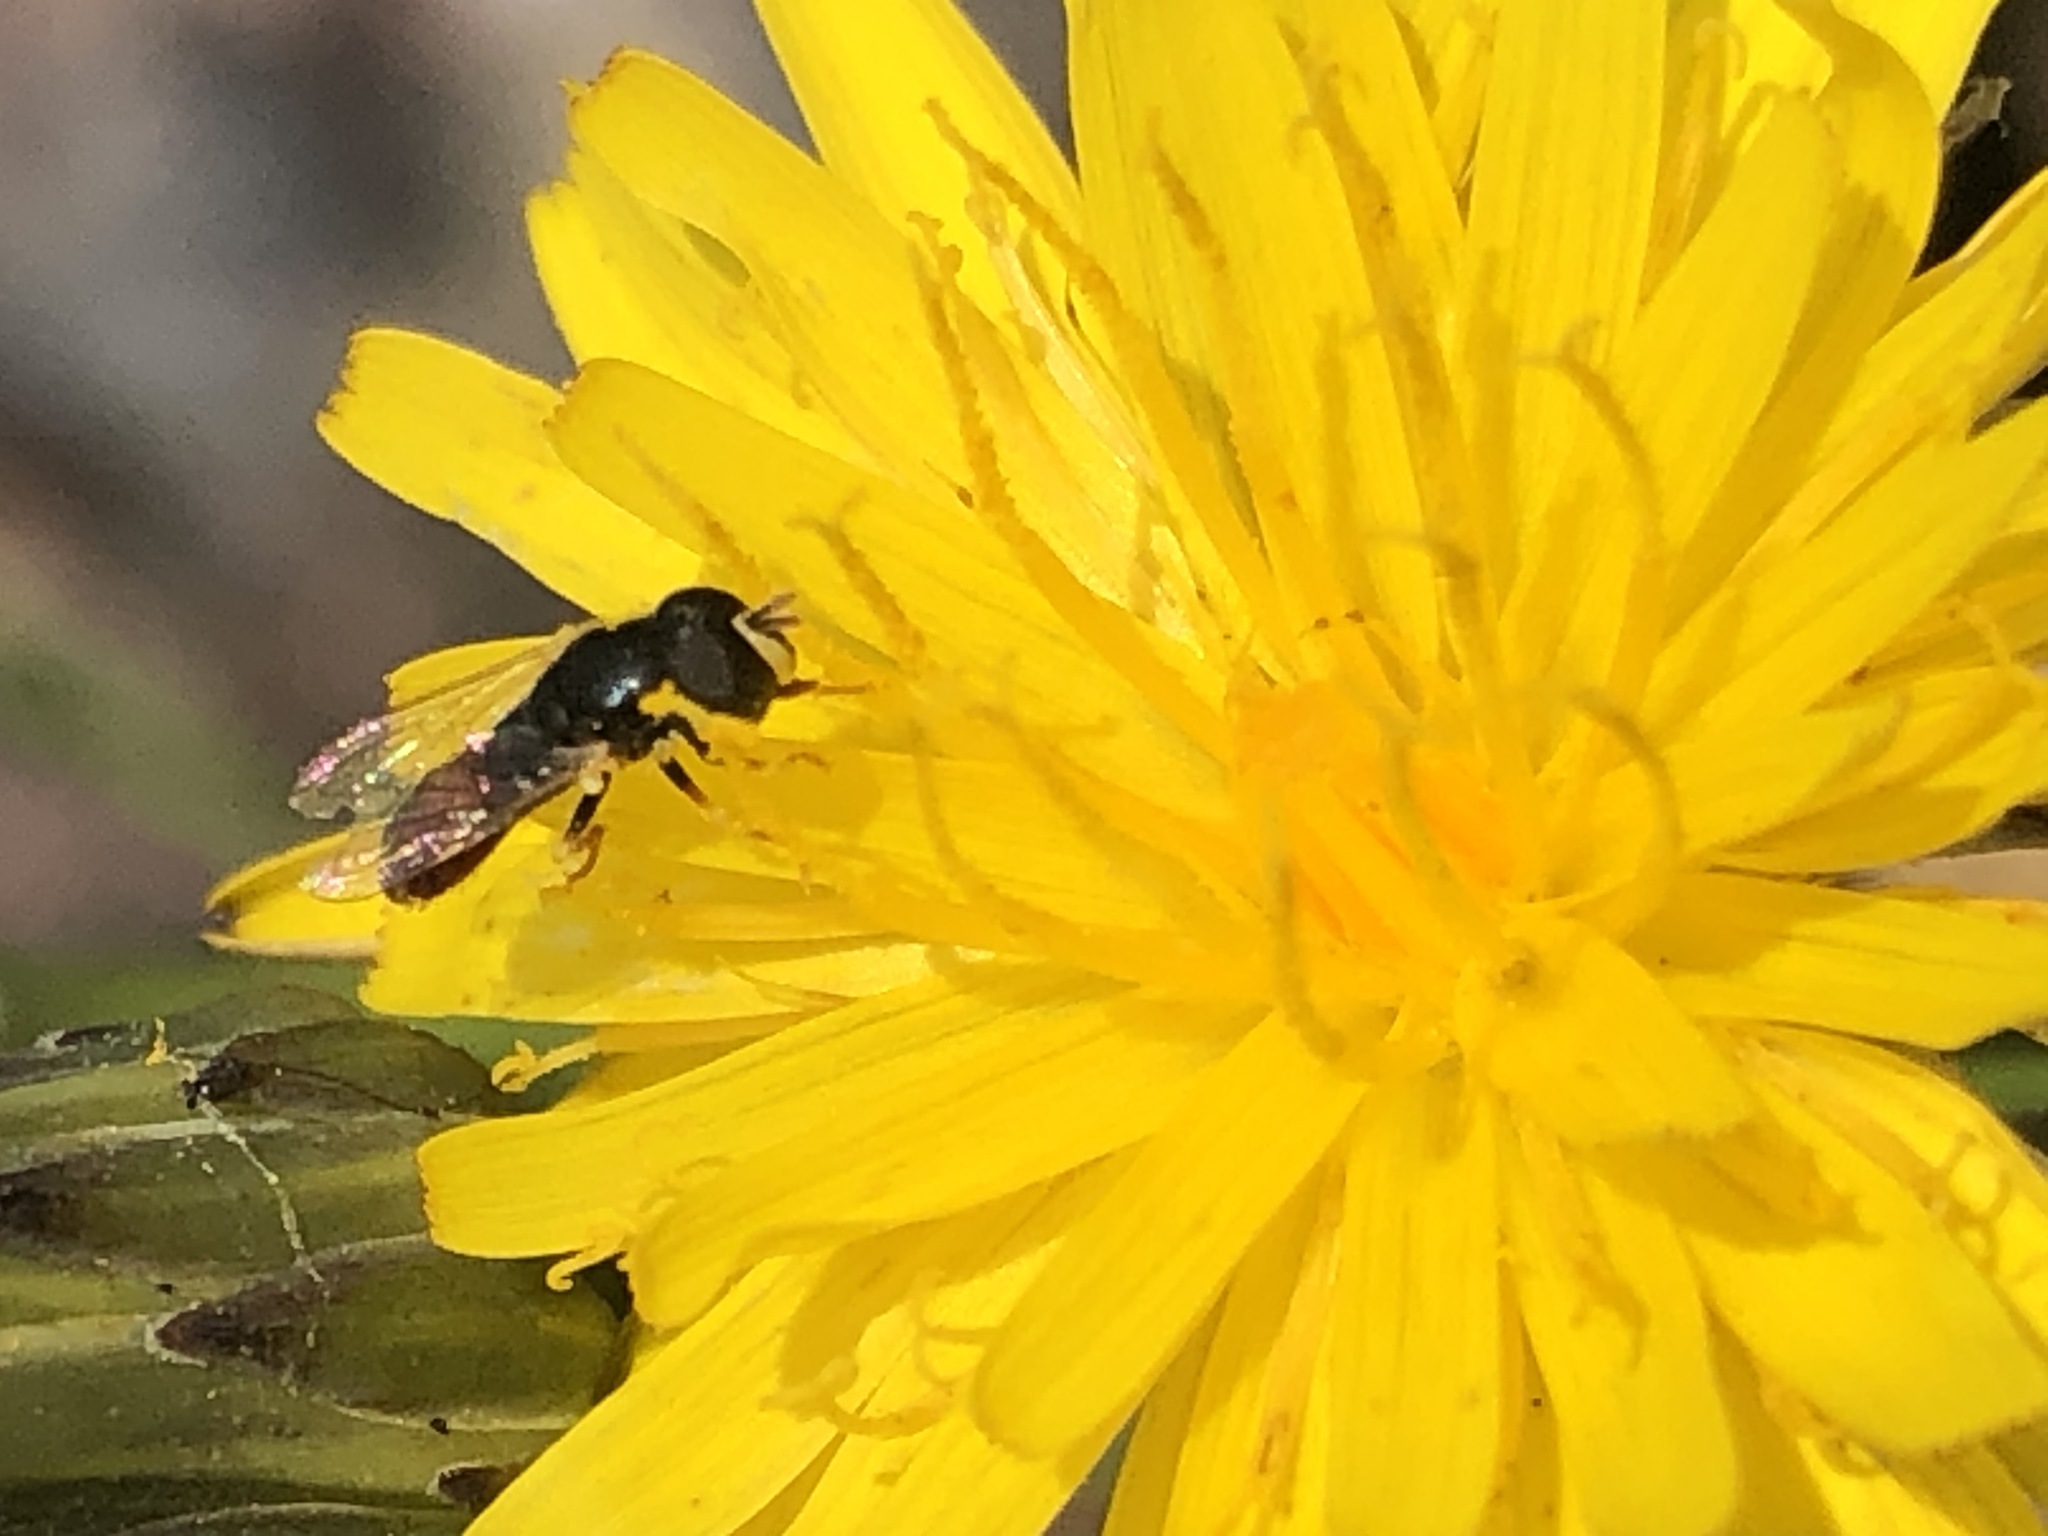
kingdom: Animalia
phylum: Arthropoda
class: Insecta
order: Diptera
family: Syrphidae
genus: Paragus
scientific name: Paragus haemorrhous
